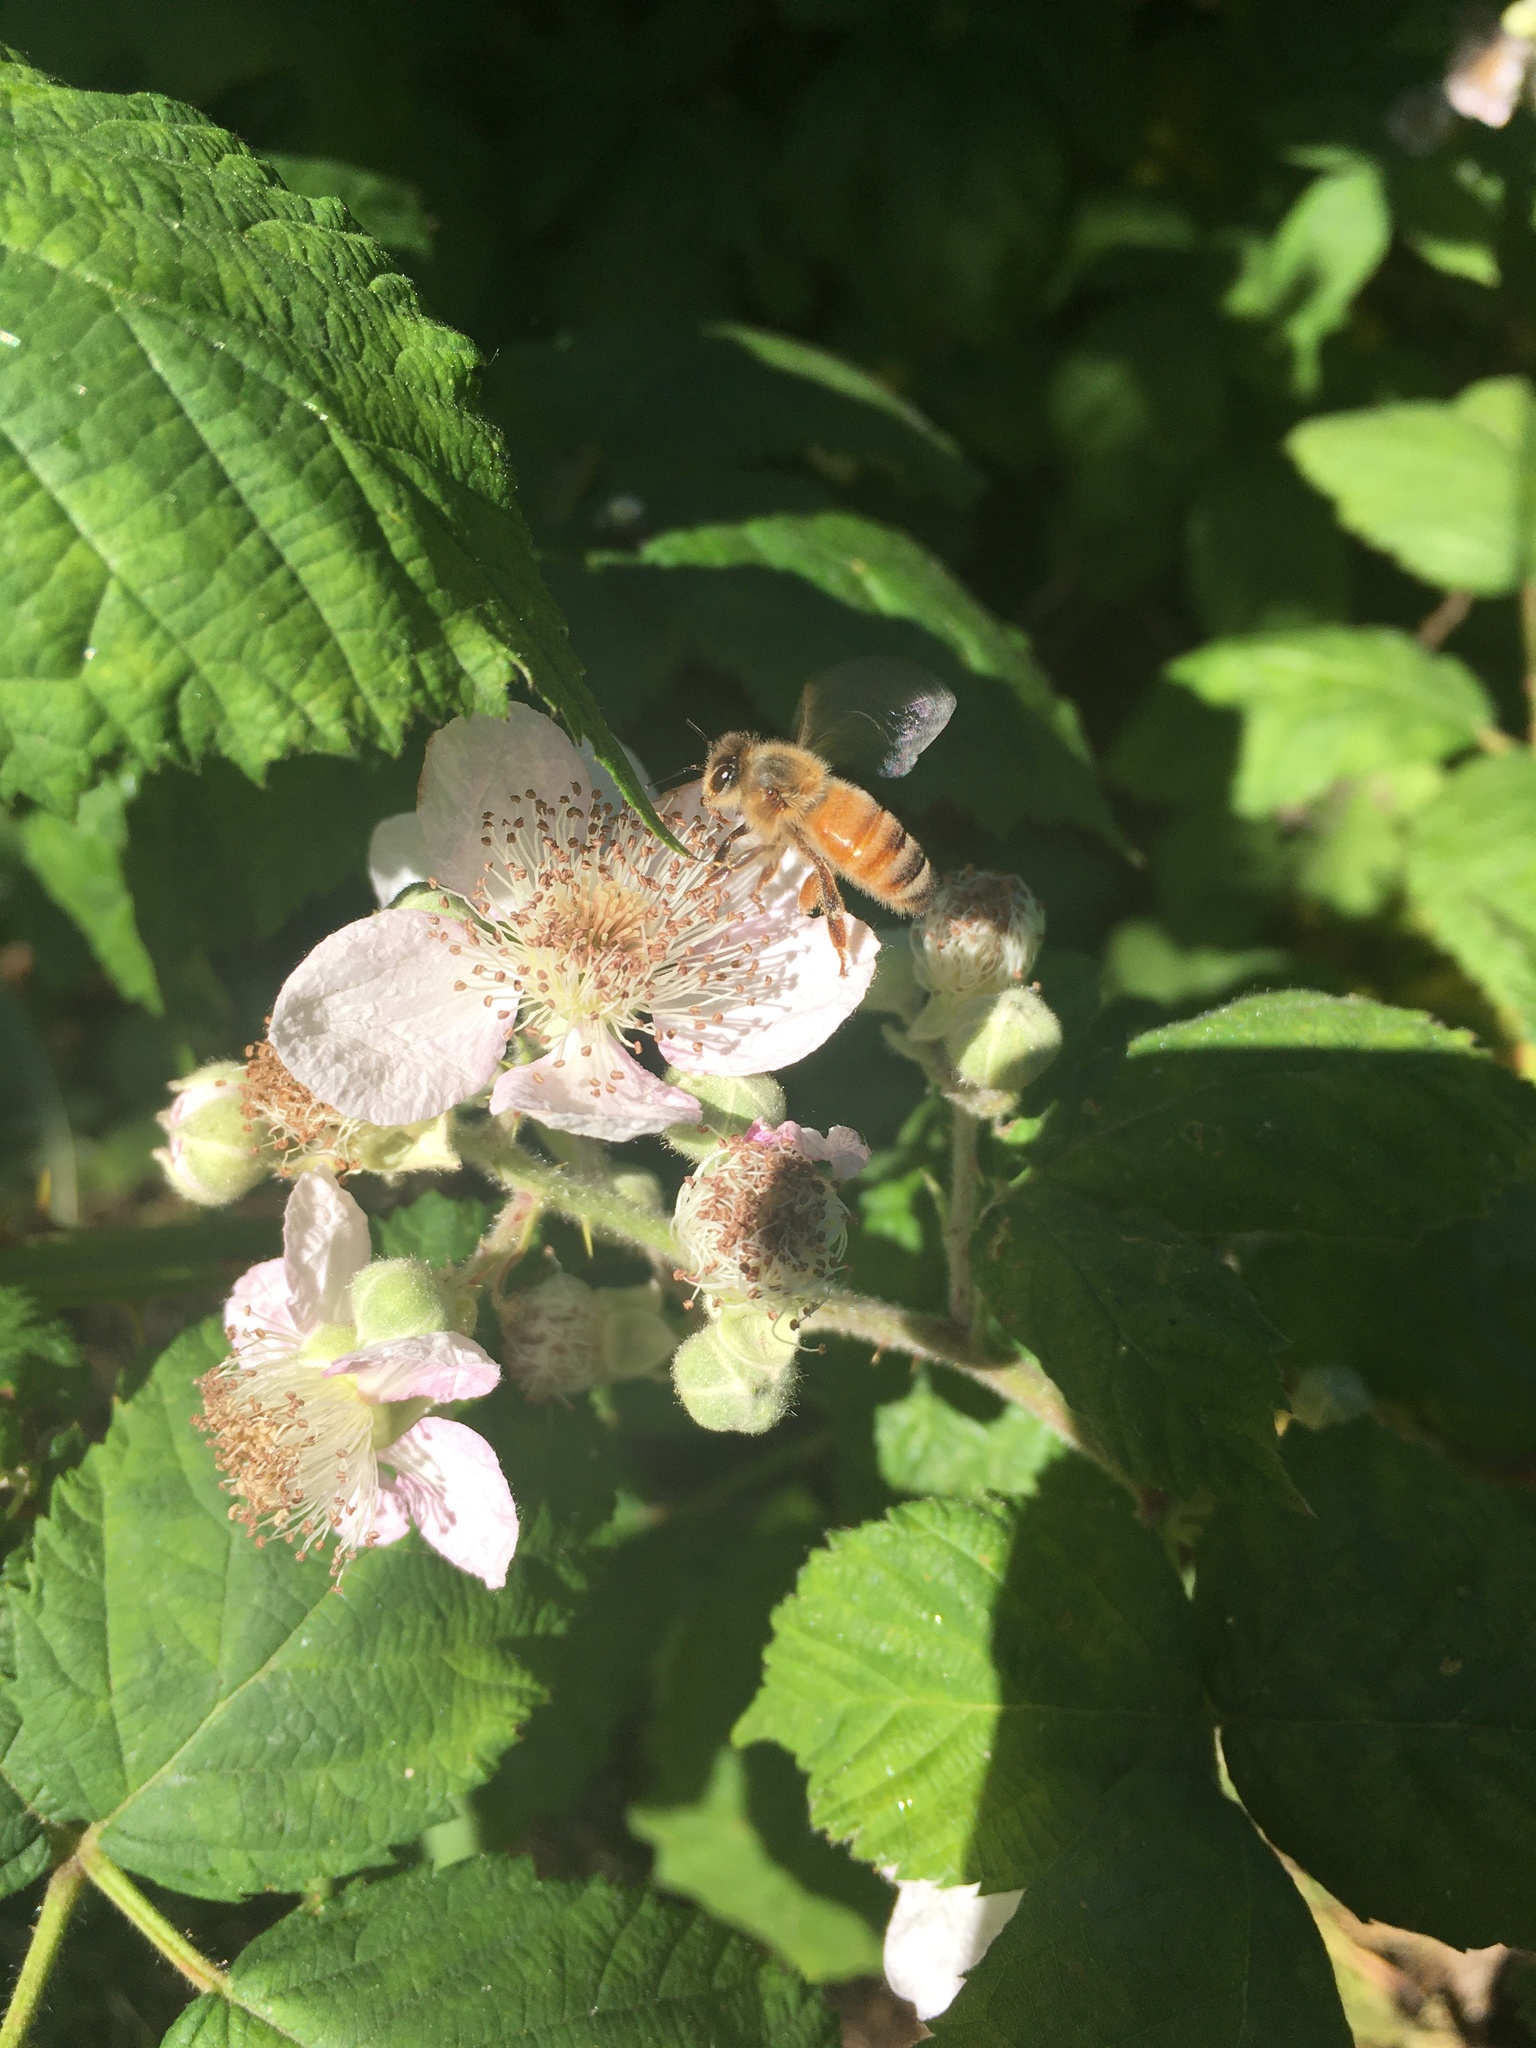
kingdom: Animalia
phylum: Arthropoda
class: Insecta
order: Hymenoptera
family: Apidae
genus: Apis
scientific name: Apis mellifera
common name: Honey bee
